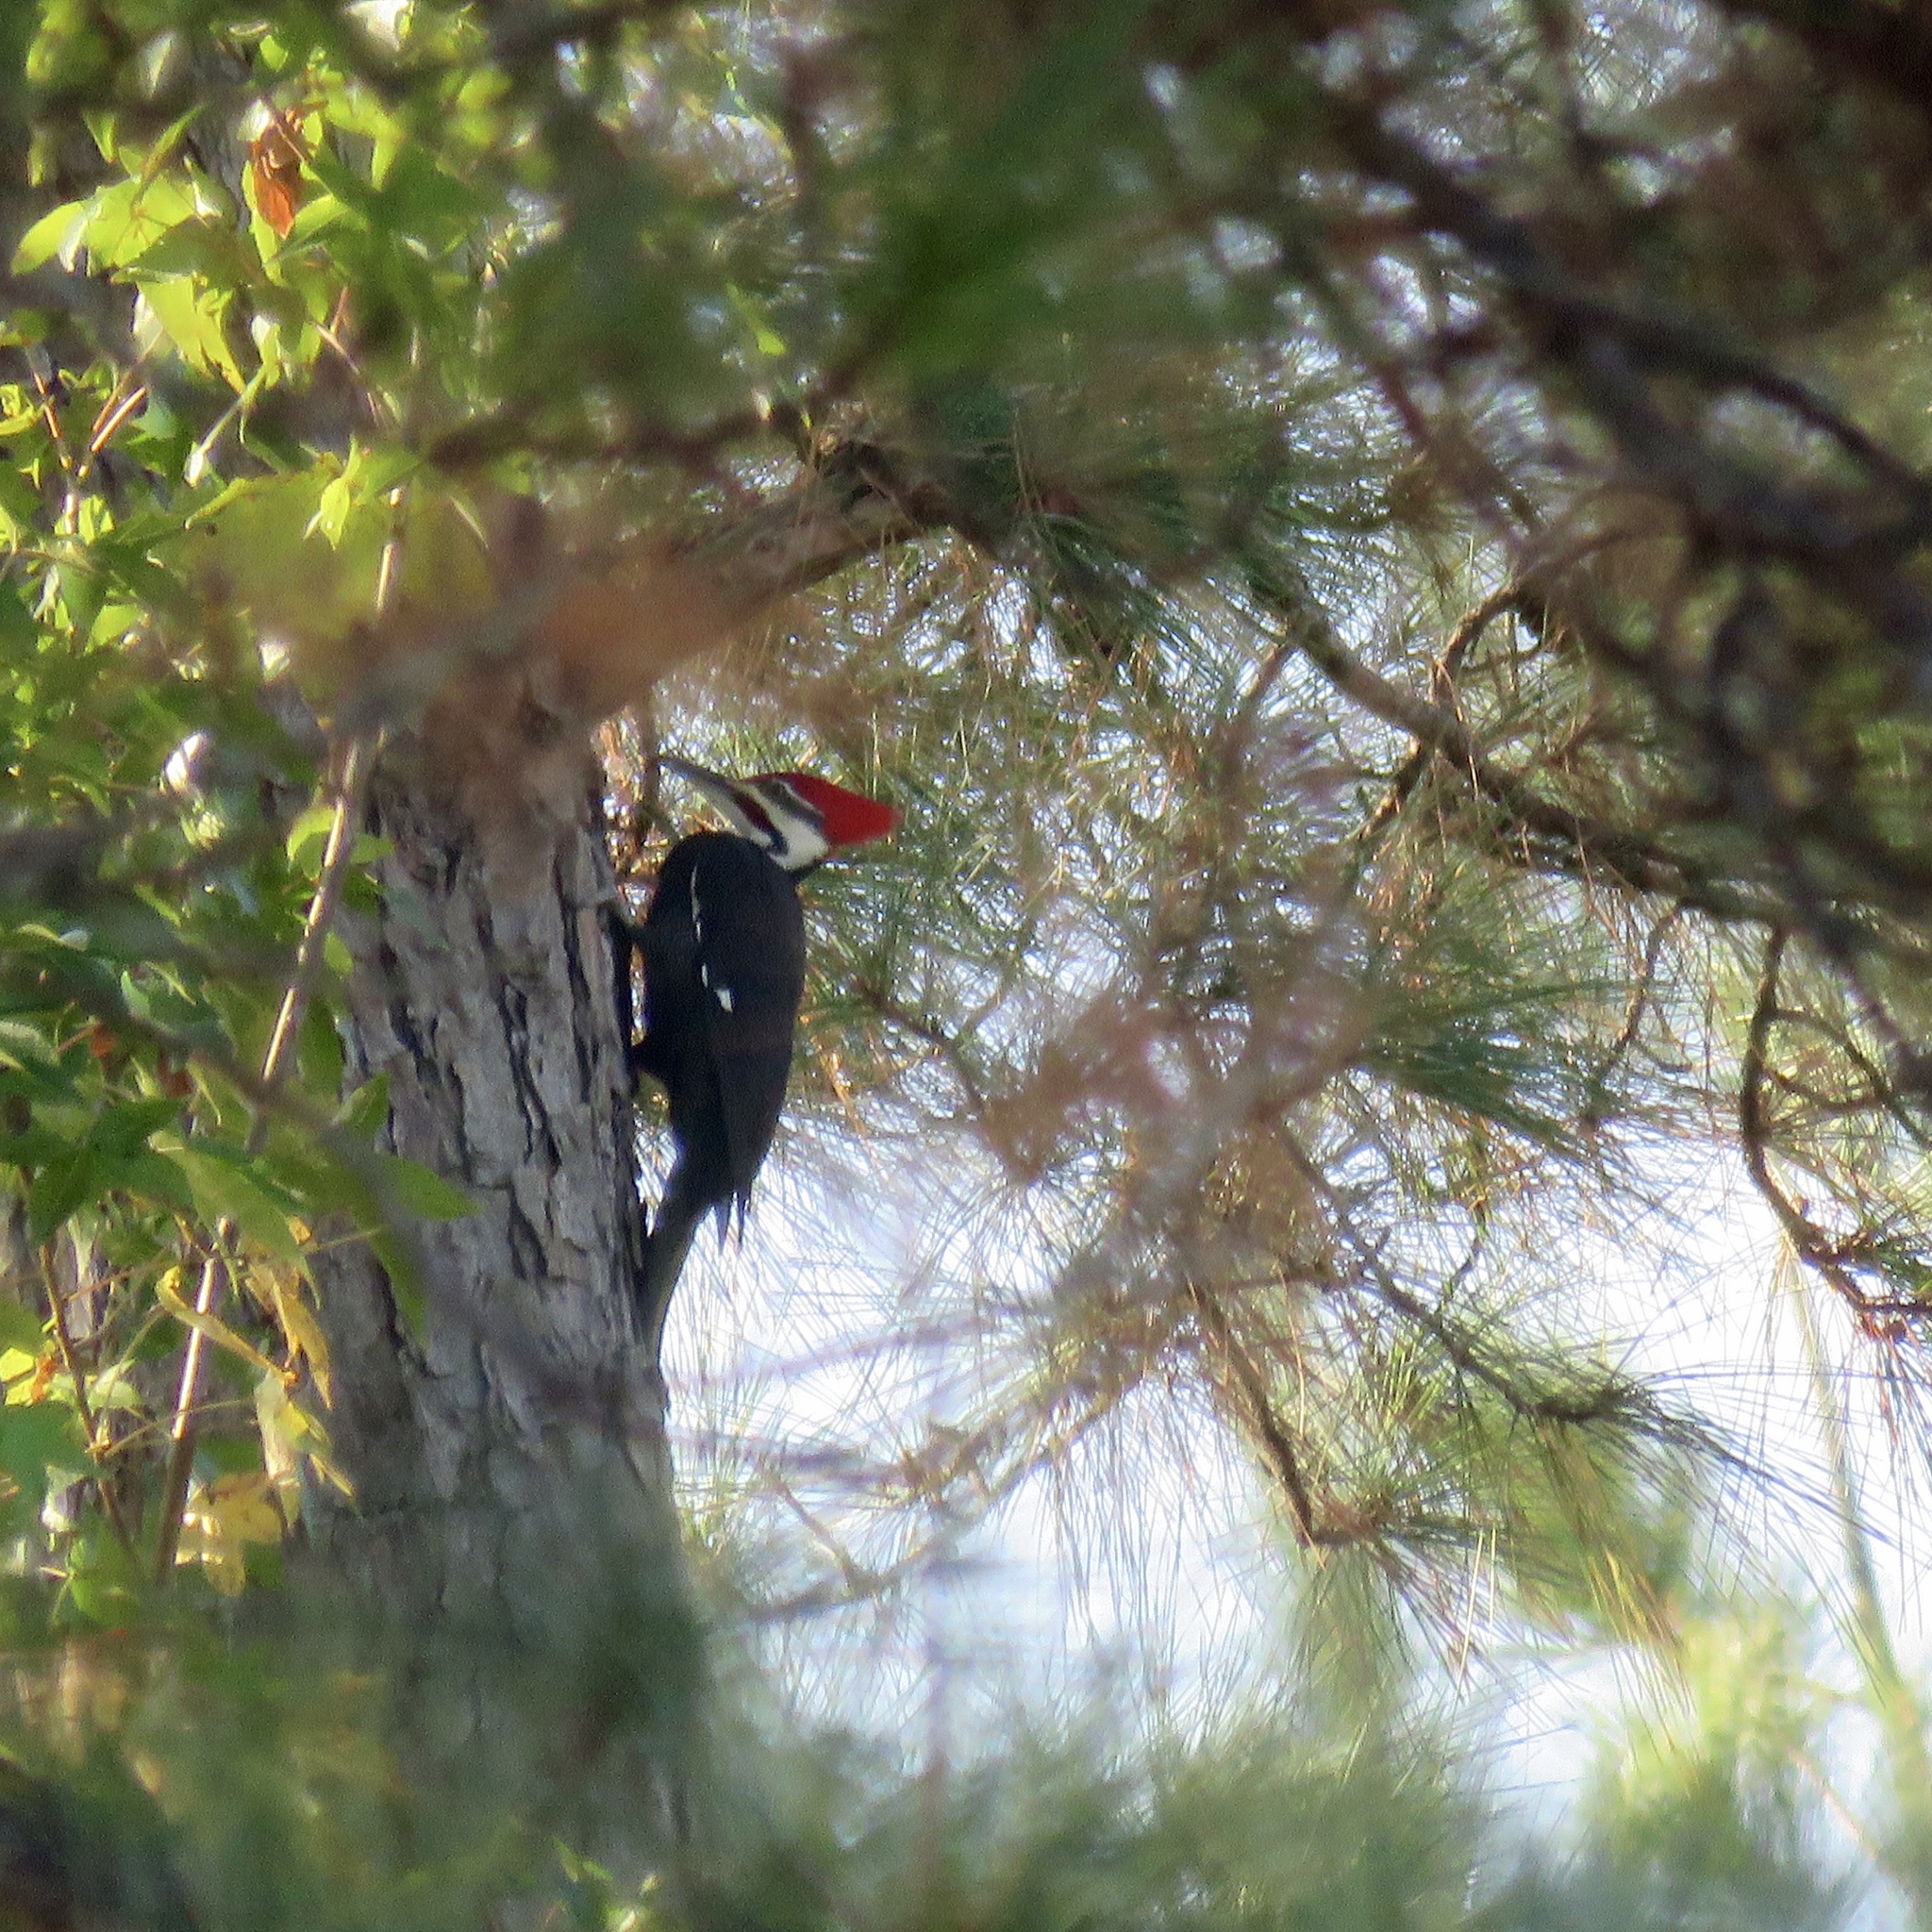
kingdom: Animalia
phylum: Chordata
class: Aves
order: Piciformes
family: Picidae
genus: Dryocopus
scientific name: Dryocopus pileatus
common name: Pileated woodpecker
